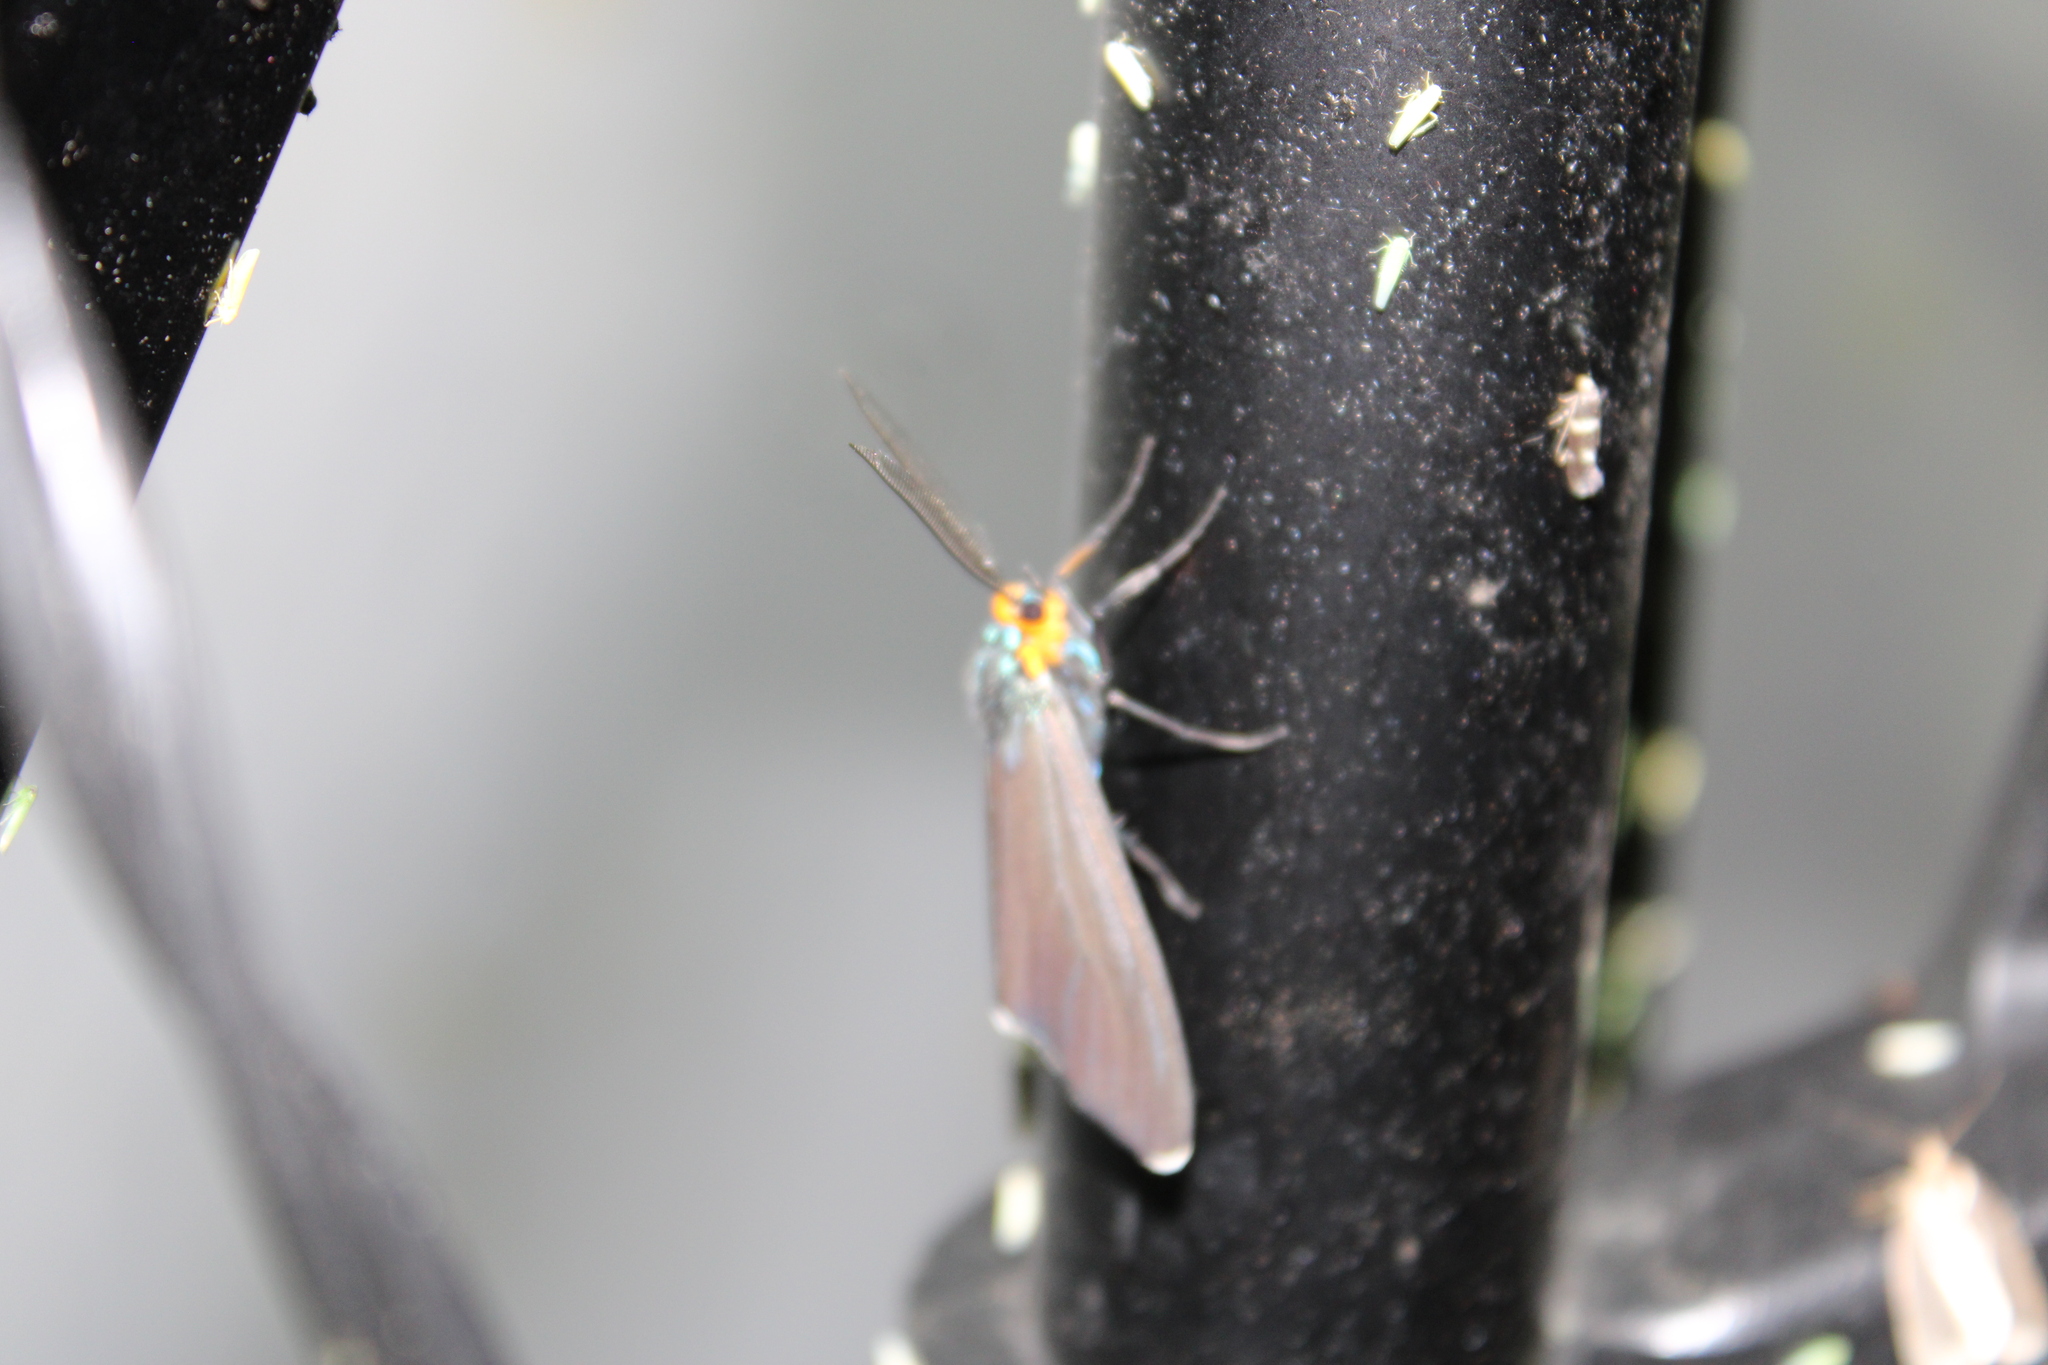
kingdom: Animalia
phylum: Arthropoda
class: Insecta
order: Lepidoptera
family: Erebidae
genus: Ctenucha
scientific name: Ctenucha virginica
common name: Virginia ctenucha moth
